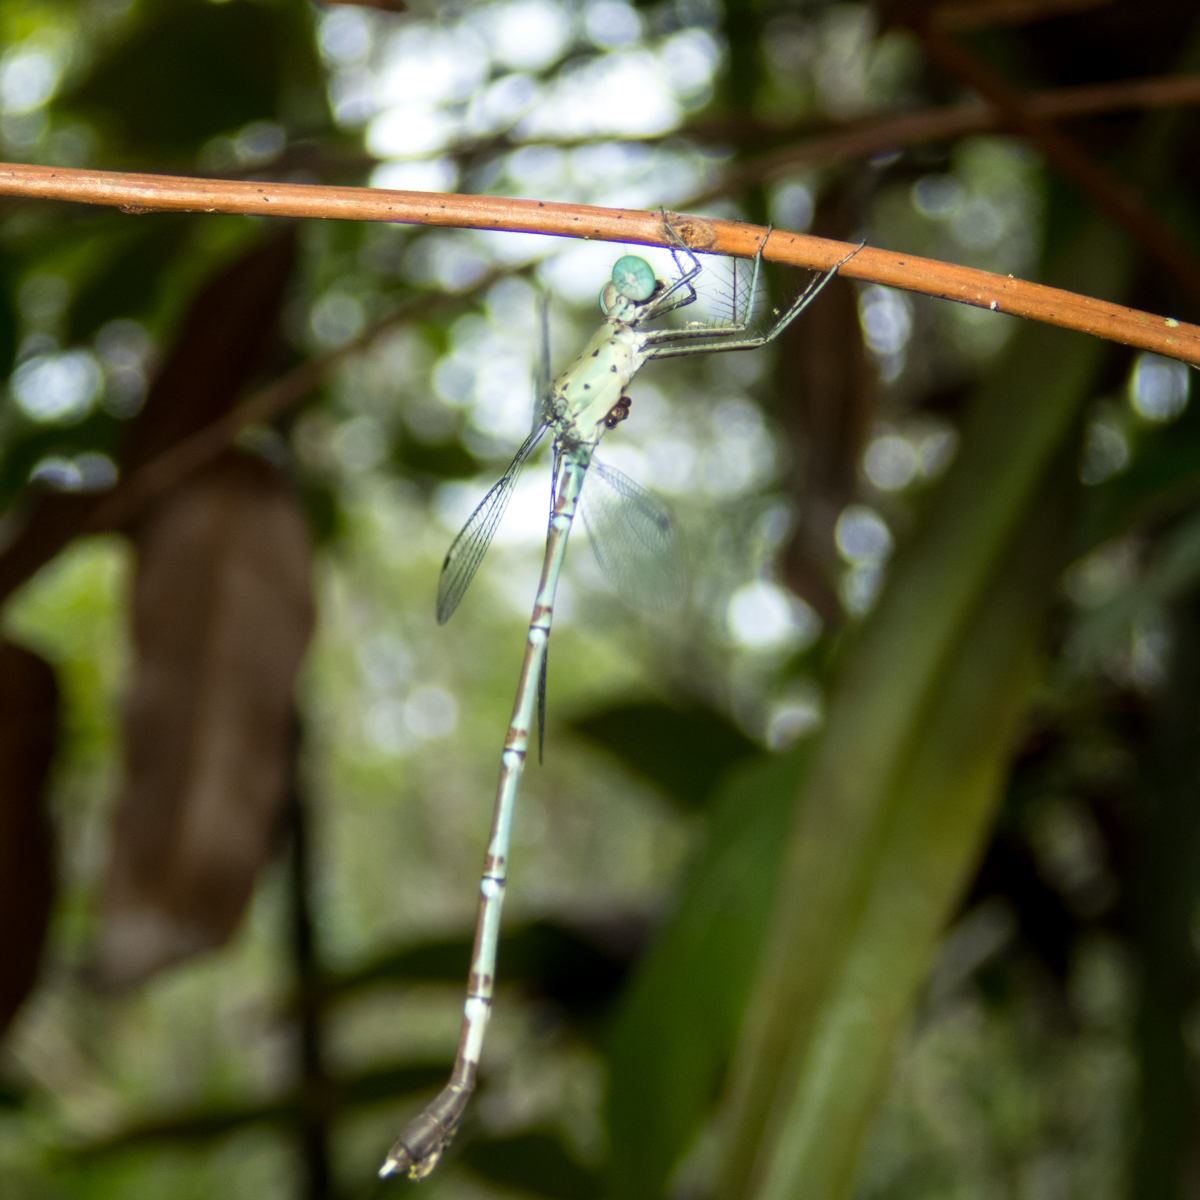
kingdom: Animalia
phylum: Arthropoda
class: Insecta
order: Odonata
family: Lestidae
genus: Platylestes
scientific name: Platylestes platystylus
